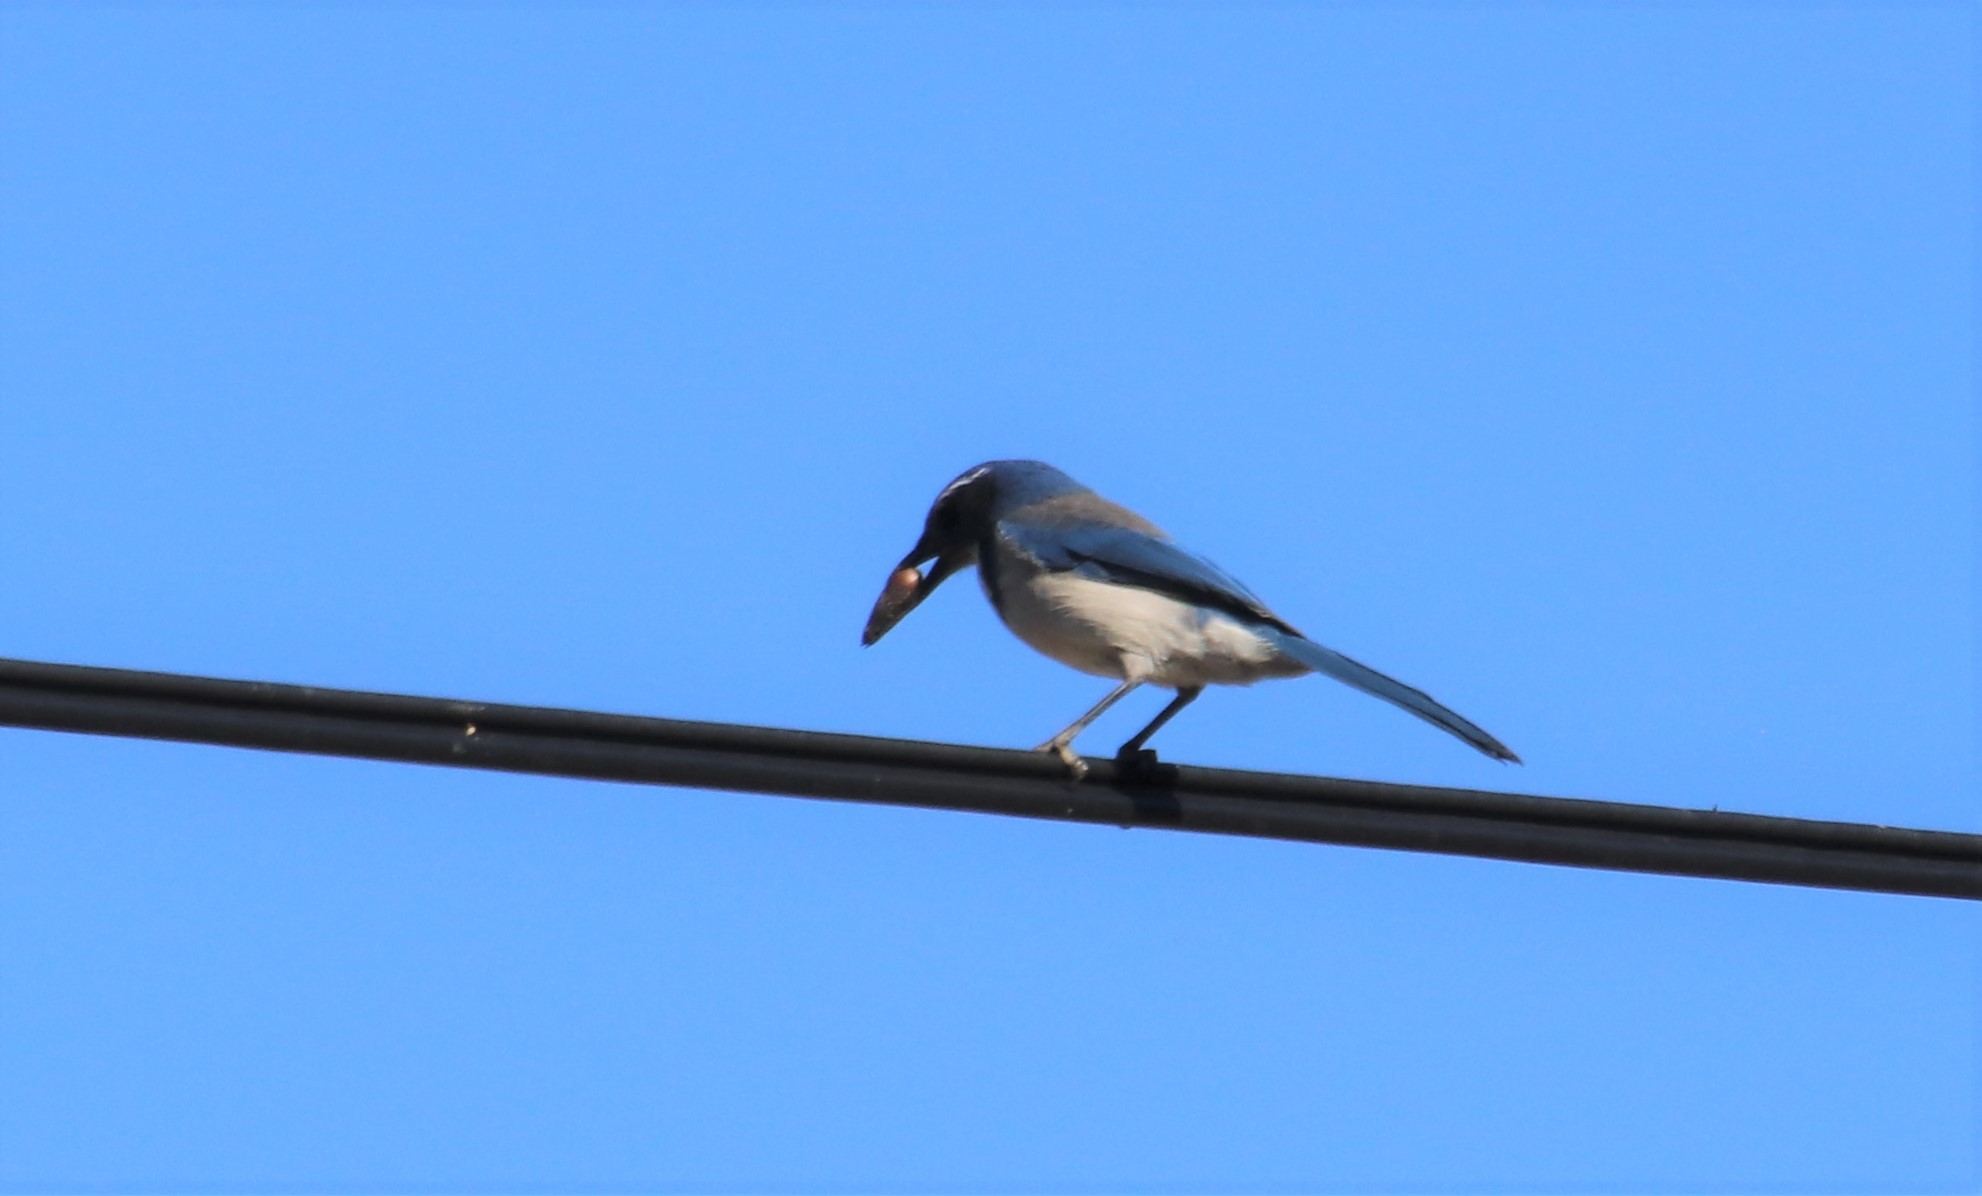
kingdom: Animalia
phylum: Chordata
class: Aves
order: Passeriformes
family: Corvidae
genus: Aphelocoma
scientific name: Aphelocoma californica
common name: California scrub-jay
